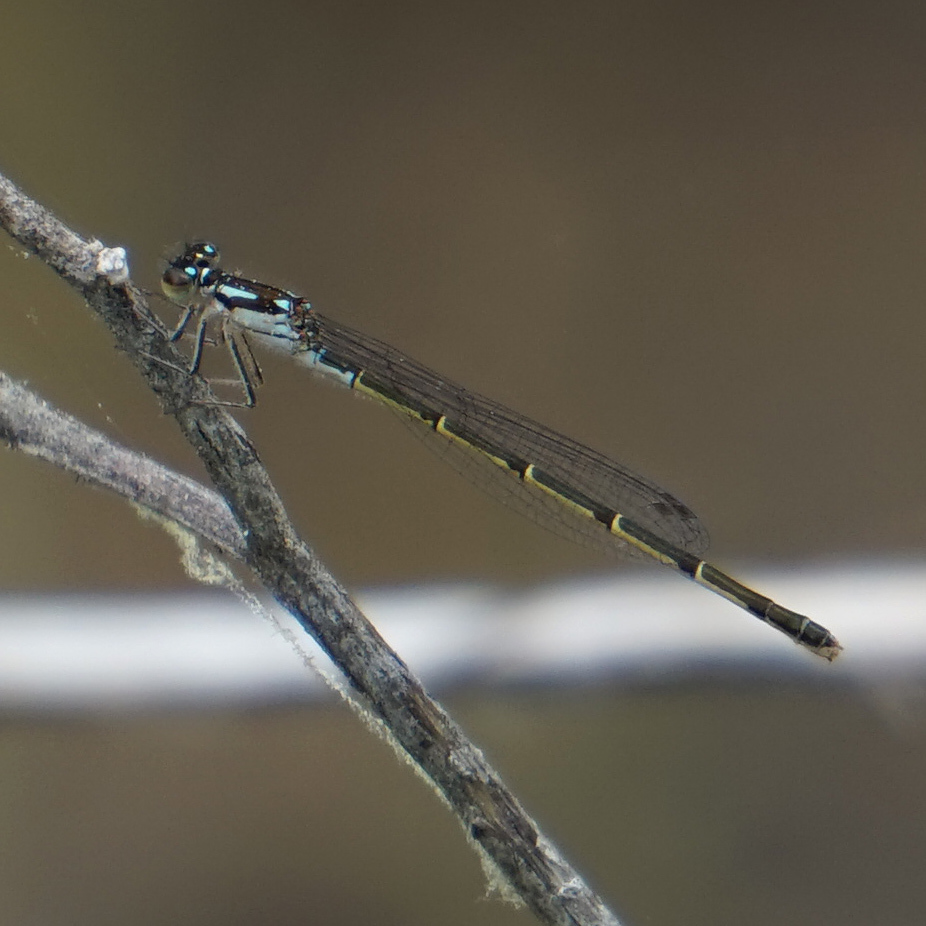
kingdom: Animalia
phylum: Arthropoda
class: Insecta
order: Odonata
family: Coenagrionidae
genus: Ischnura
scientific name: Ischnura posita
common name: Fragile forktail
